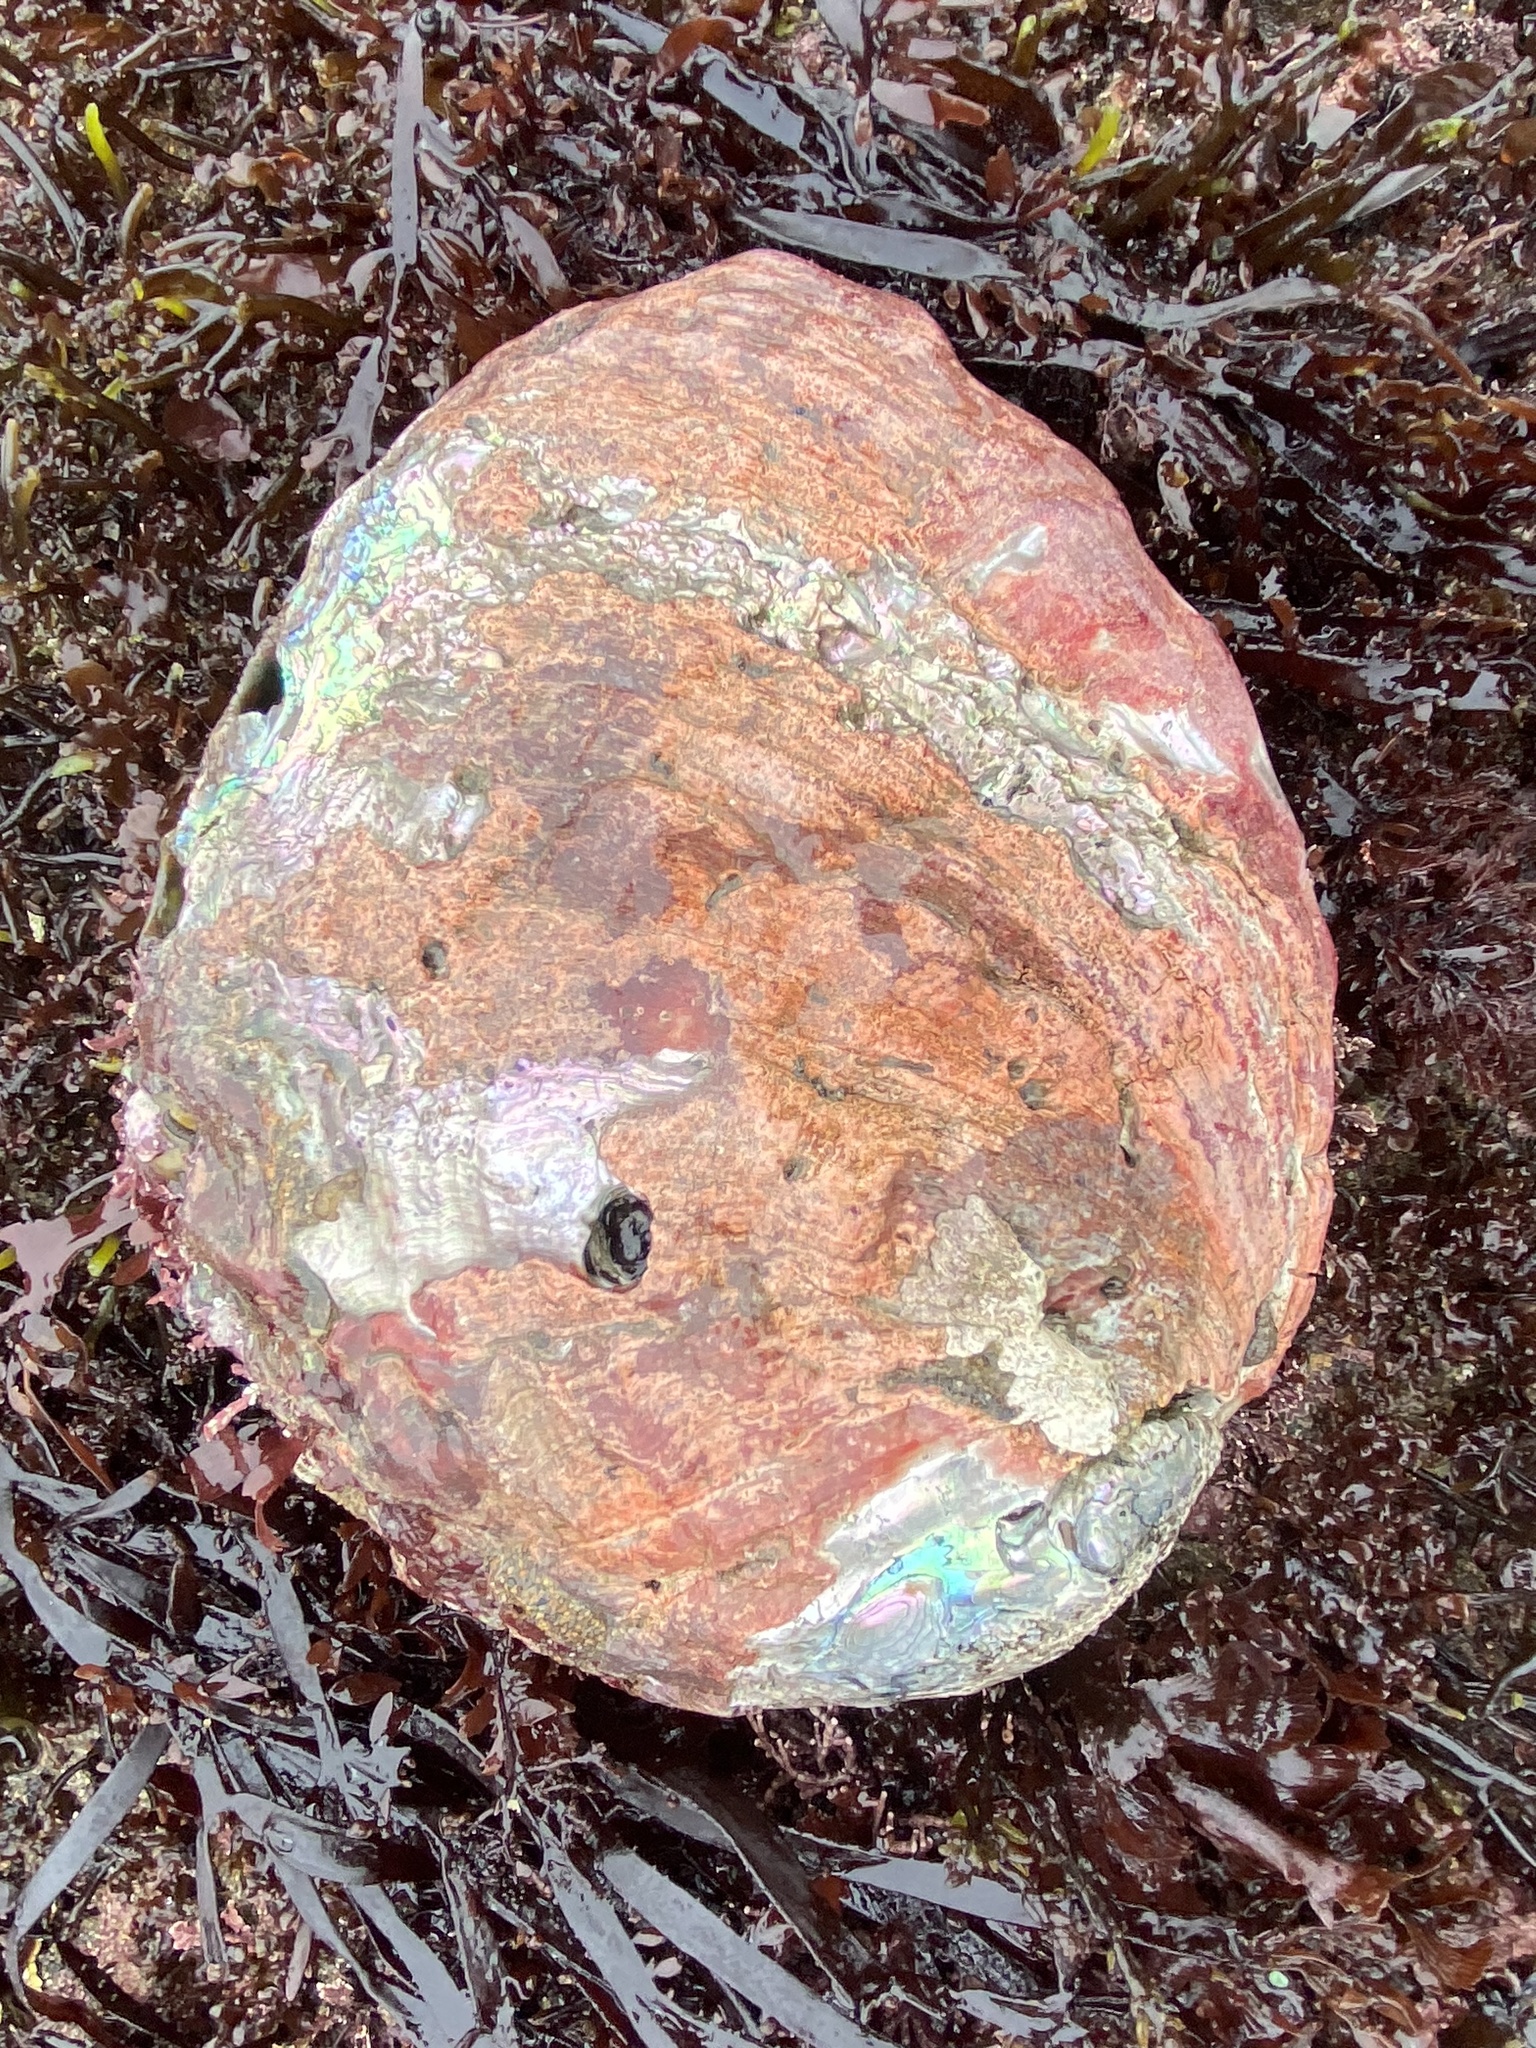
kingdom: Animalia
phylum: Mollusca
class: Gastropoda
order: Lepetellida
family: Haliotidae
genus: Haliotis
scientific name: Haliotis rufescens
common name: Red abalone
